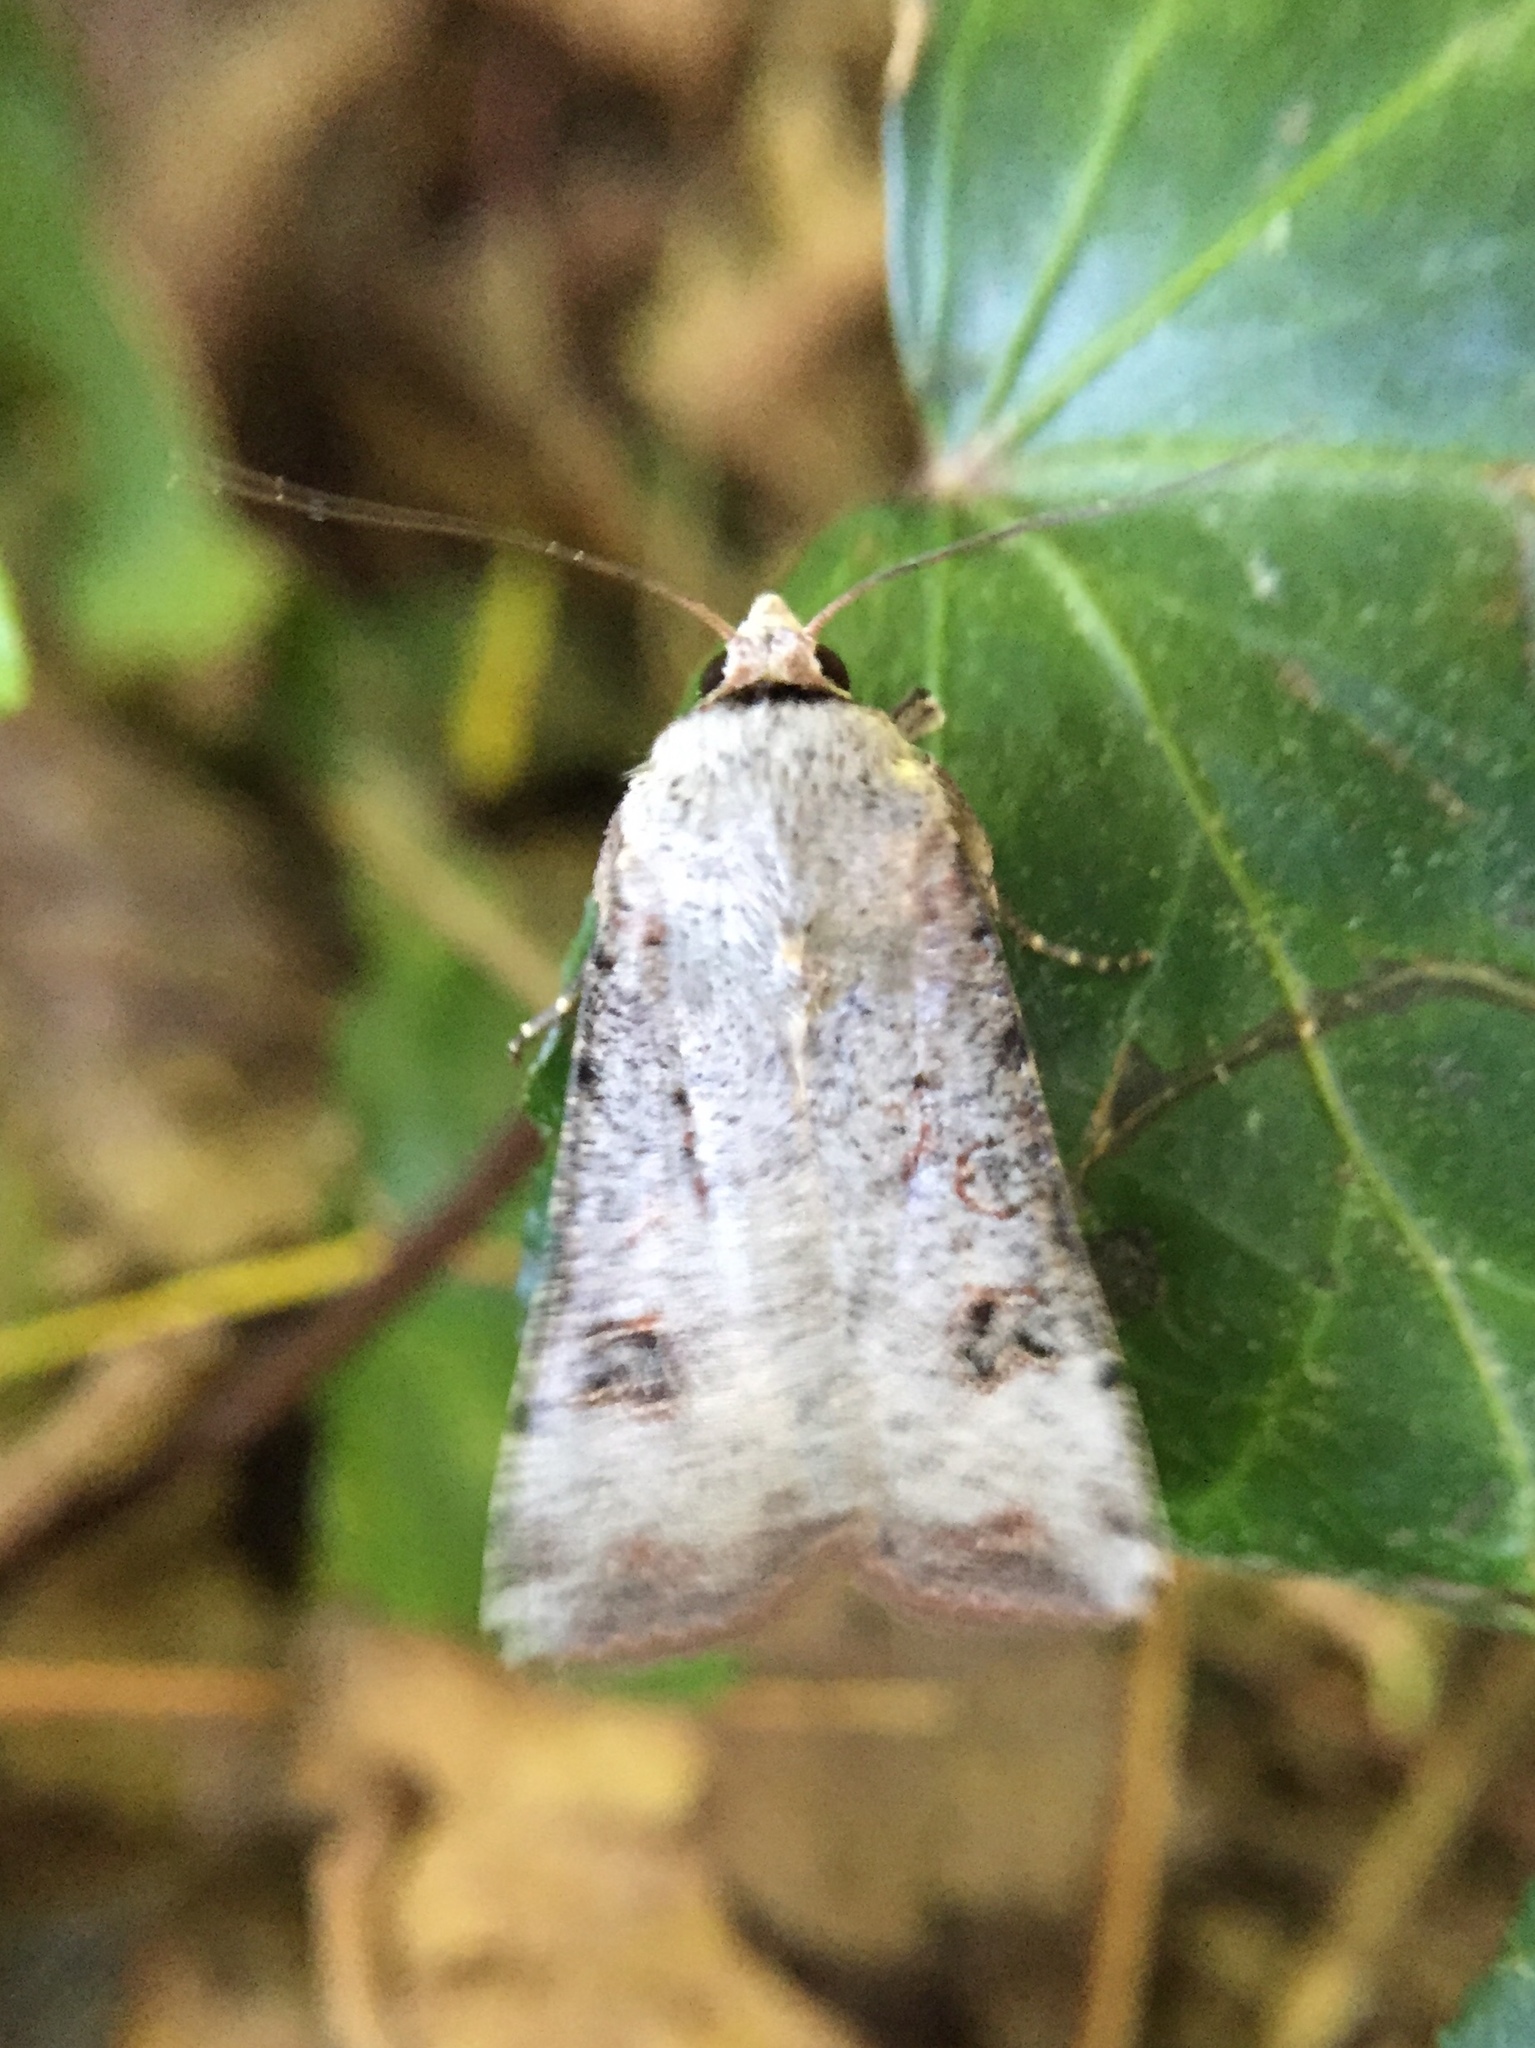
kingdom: Animalia
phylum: Arthropoda
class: Insecta
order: Lepidoptera
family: Noctuidae
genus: Anicla
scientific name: Anicla infecta
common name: Green cutworm
